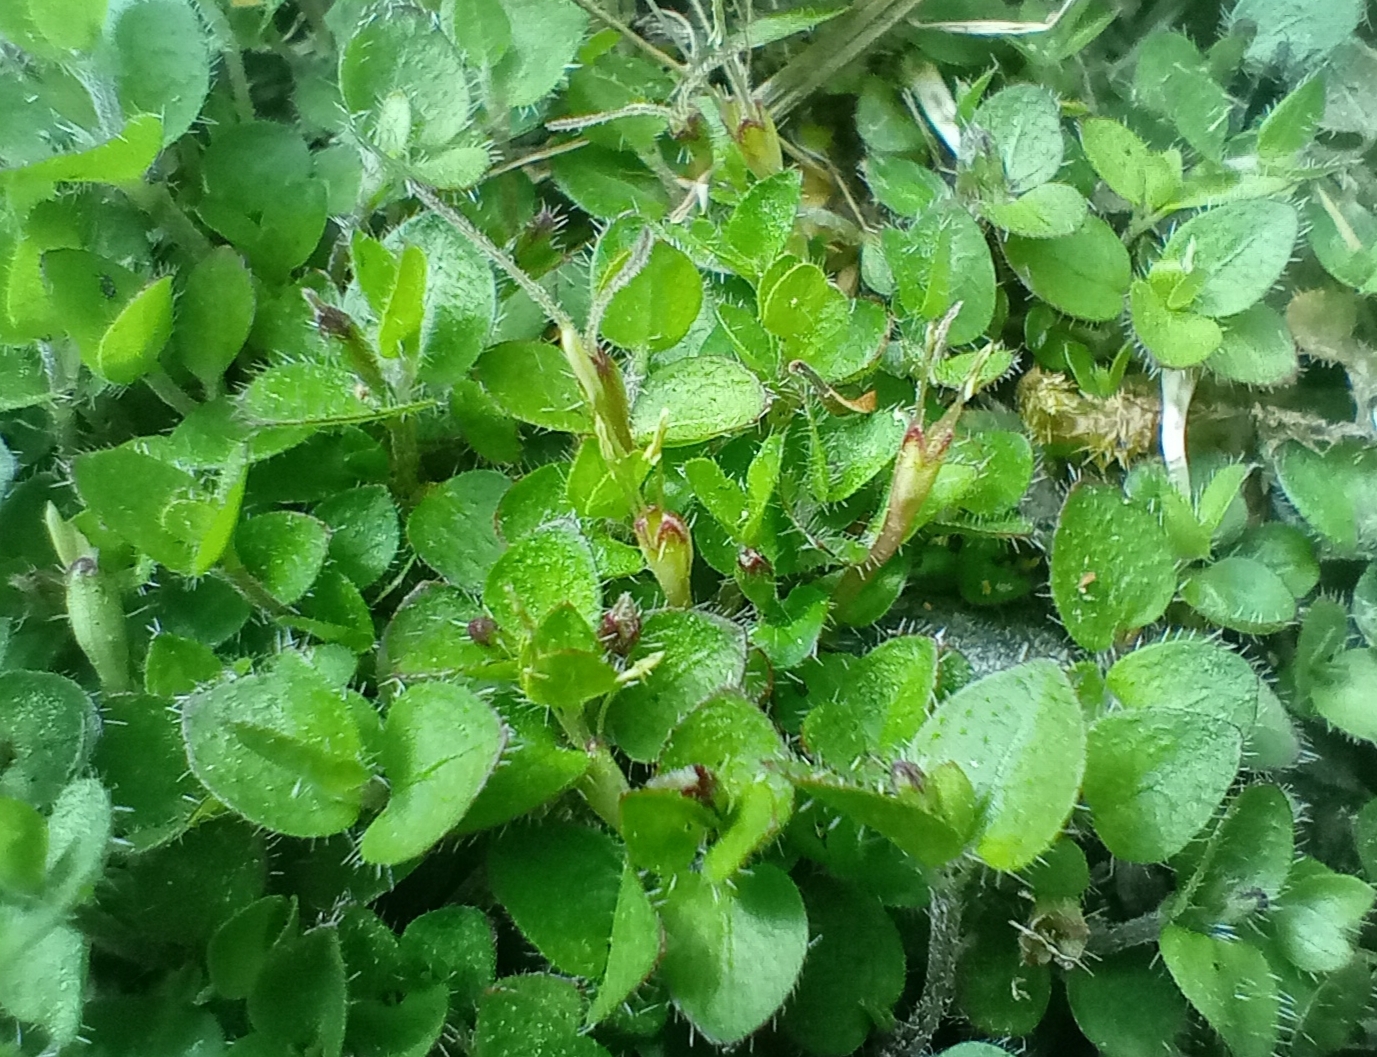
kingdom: Plantae
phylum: Tracheophyta
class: Magnoliopsida
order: Gentianales
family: Rubiaceae
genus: Leptostigma
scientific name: Leptostigma setulosum
